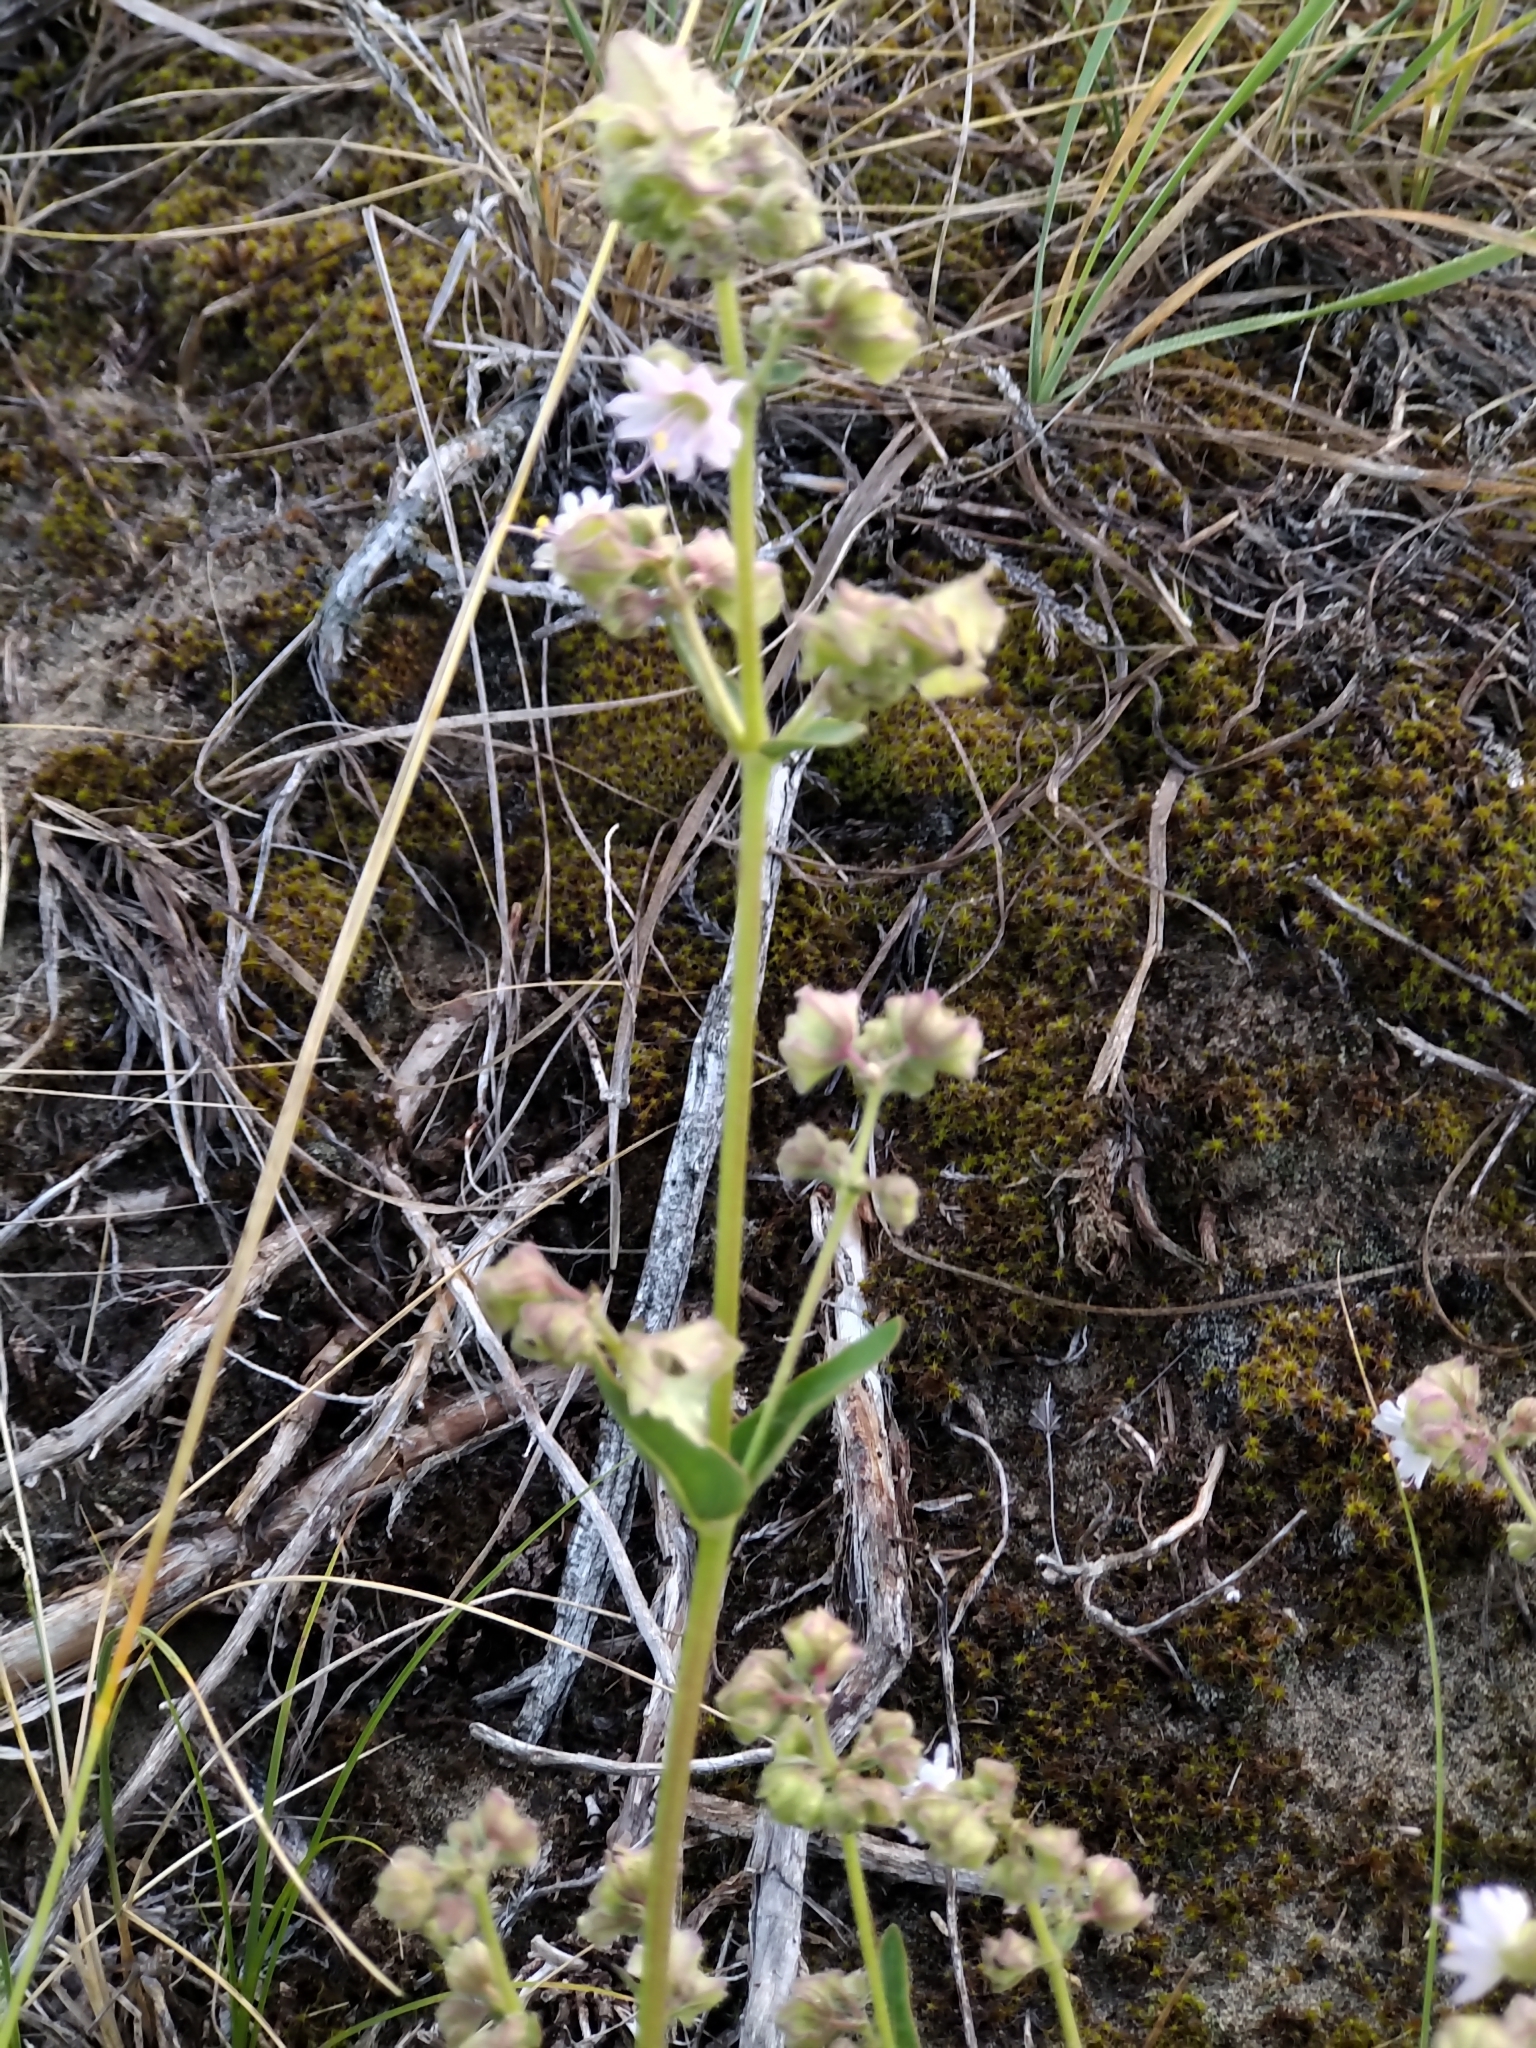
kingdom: Plantae
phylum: Tracheophyta
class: Magnoliopsida
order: Caryophyllales
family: Nyctaginaceae
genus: Mirabilis
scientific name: Mirabilis albida
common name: Hairy four-o'clock
